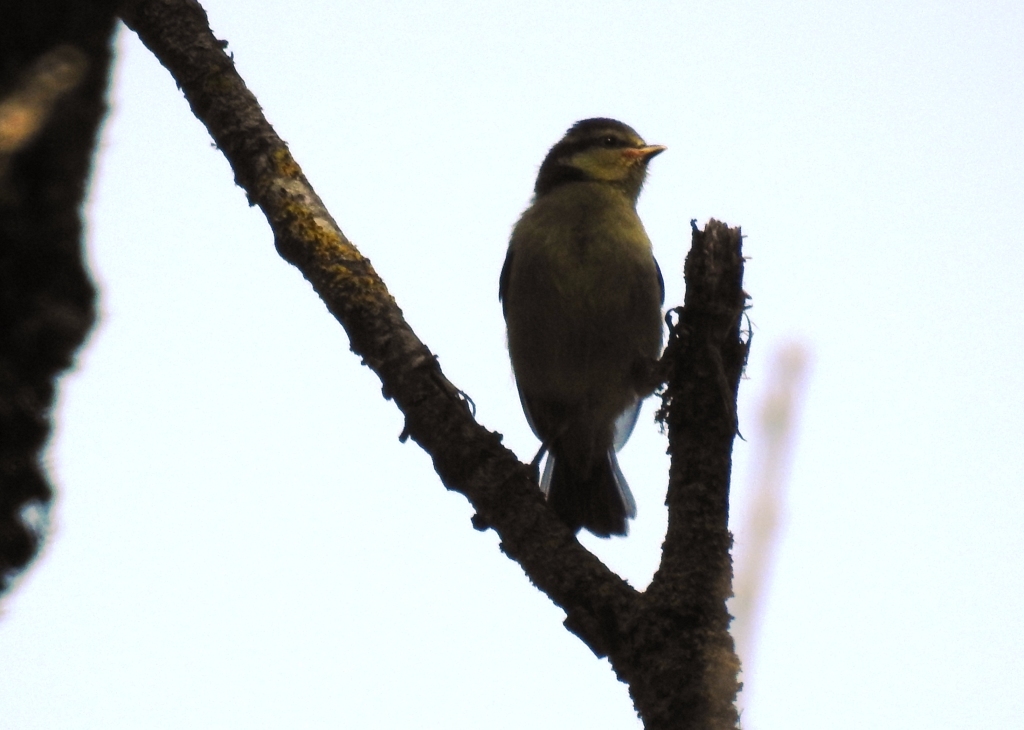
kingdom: Animalia
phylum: Chordata
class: Aves
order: Passeriformes
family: Paridae
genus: Cyanistes
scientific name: Cyanistes teneriffae
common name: African blue tit
